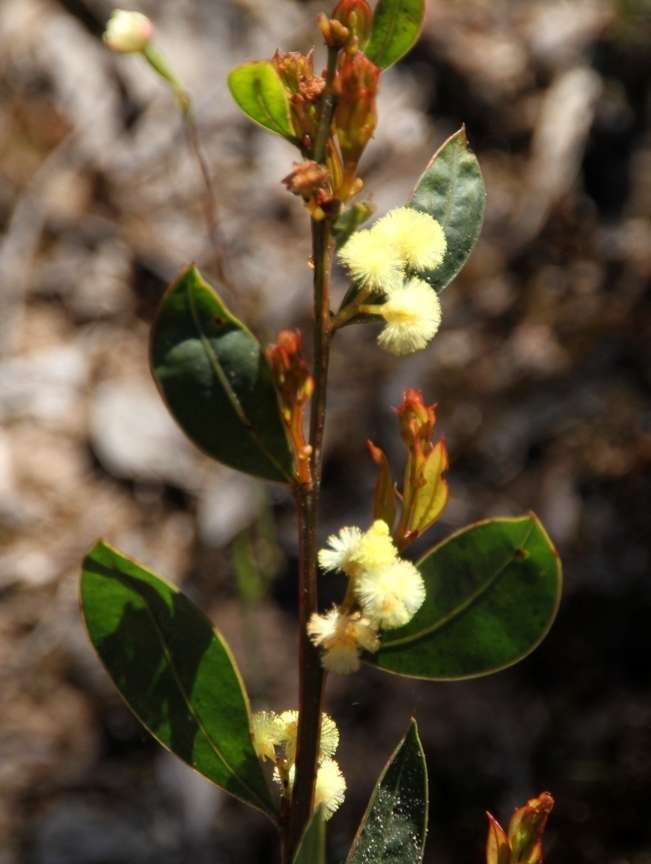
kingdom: Plantae
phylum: Tracheophyta
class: Magnoliopsida
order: Fabales
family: Fabaceae
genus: Acacia
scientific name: Acacia myrtifolia
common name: Myrtle wattle
